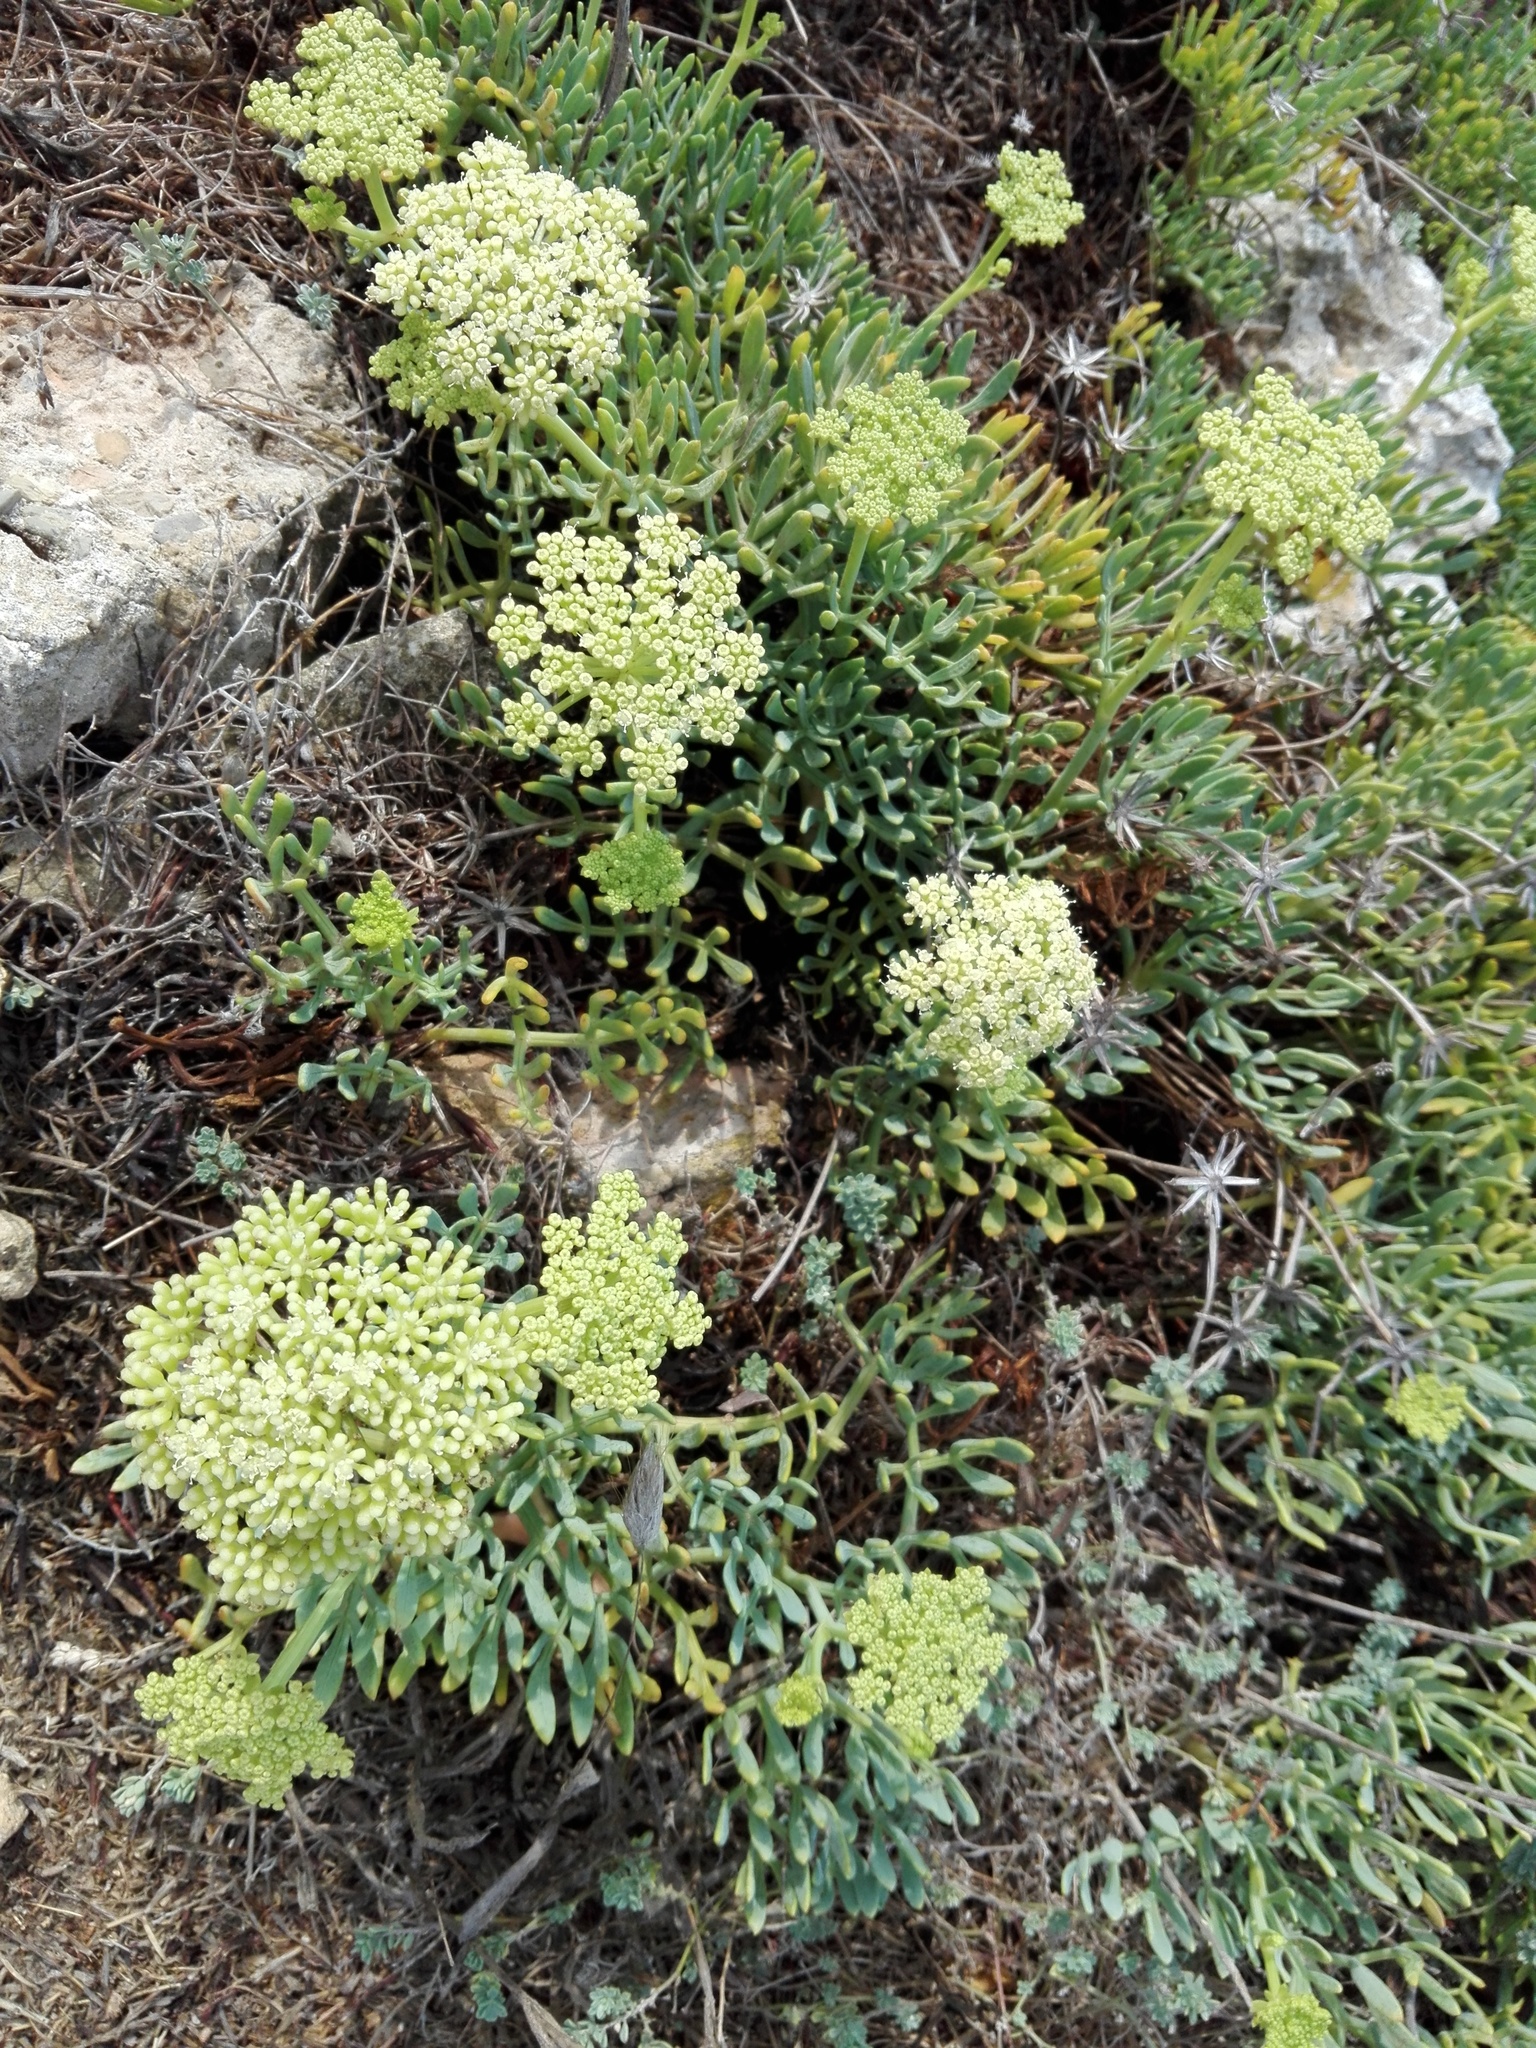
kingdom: Plantae
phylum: Tracheophyta
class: Magnoliopsida
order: Apiales
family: Apiaceae
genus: Crithmum
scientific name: Crithmum maritimum
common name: Rock samphire
